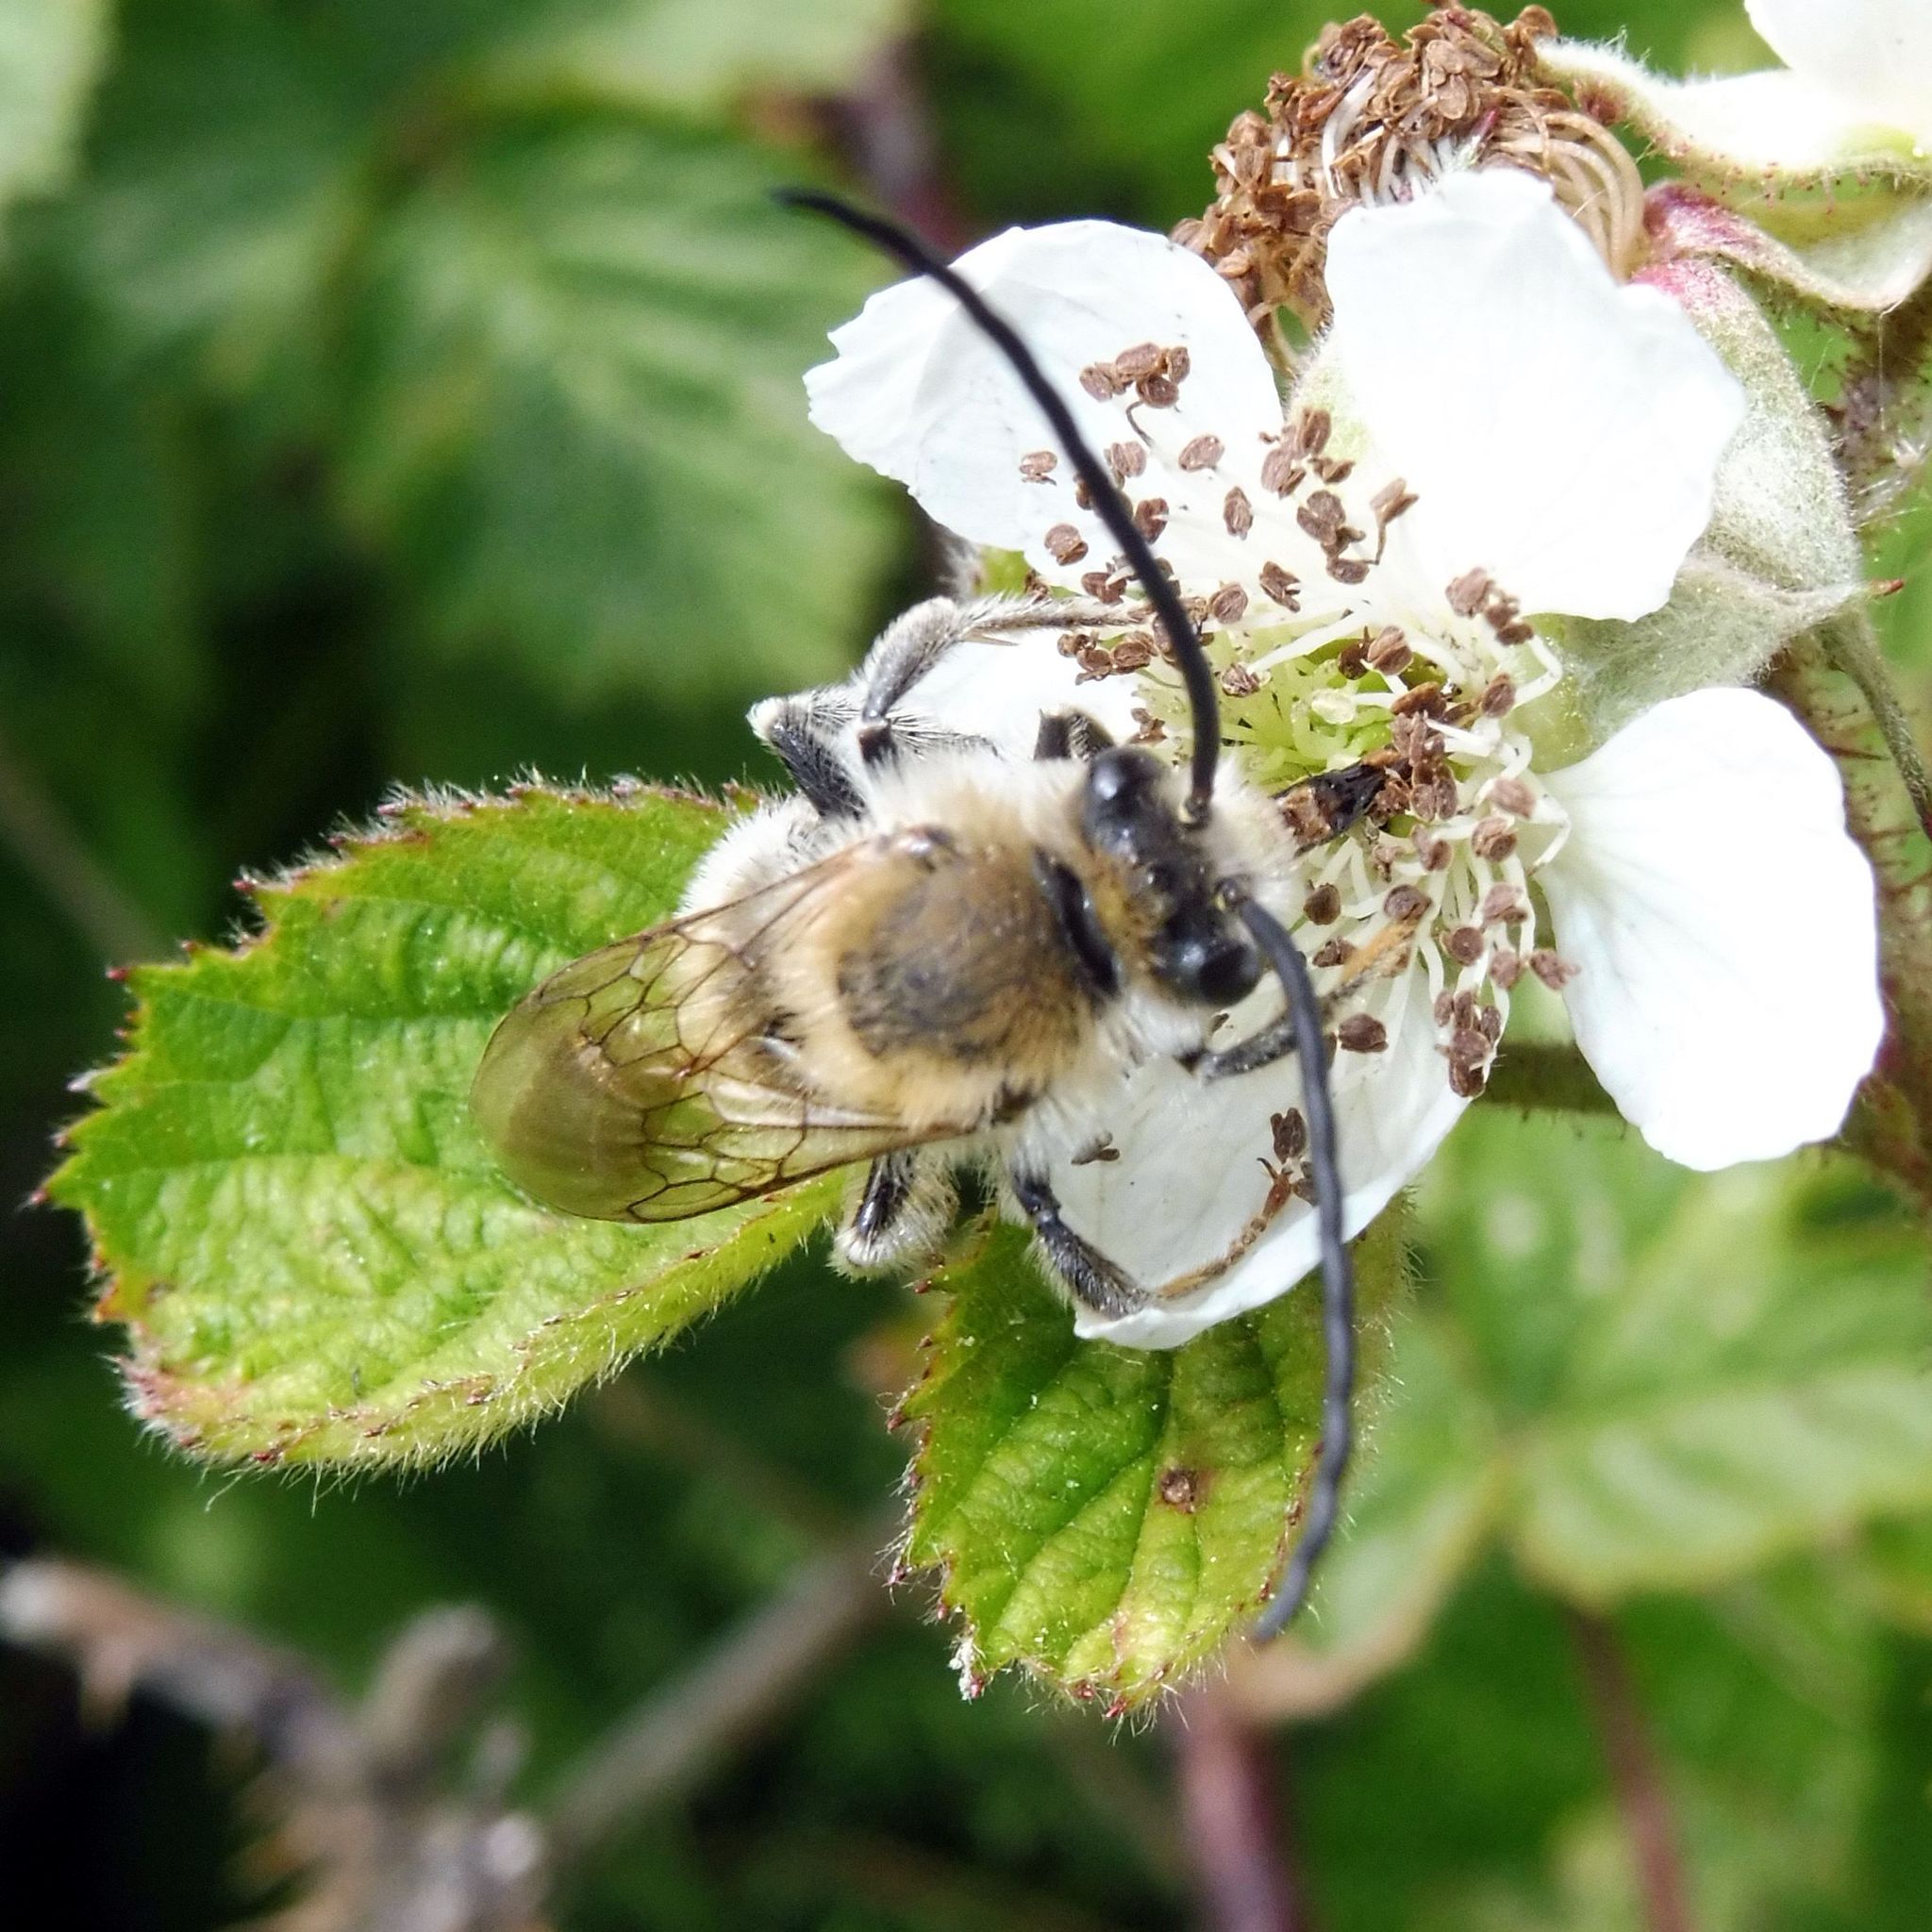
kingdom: Animalia
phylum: Arthropoda
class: Insecta
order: Hymenoptera
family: Apidae
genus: Eucera
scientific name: Eucera longicornis
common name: Long-horned bee
